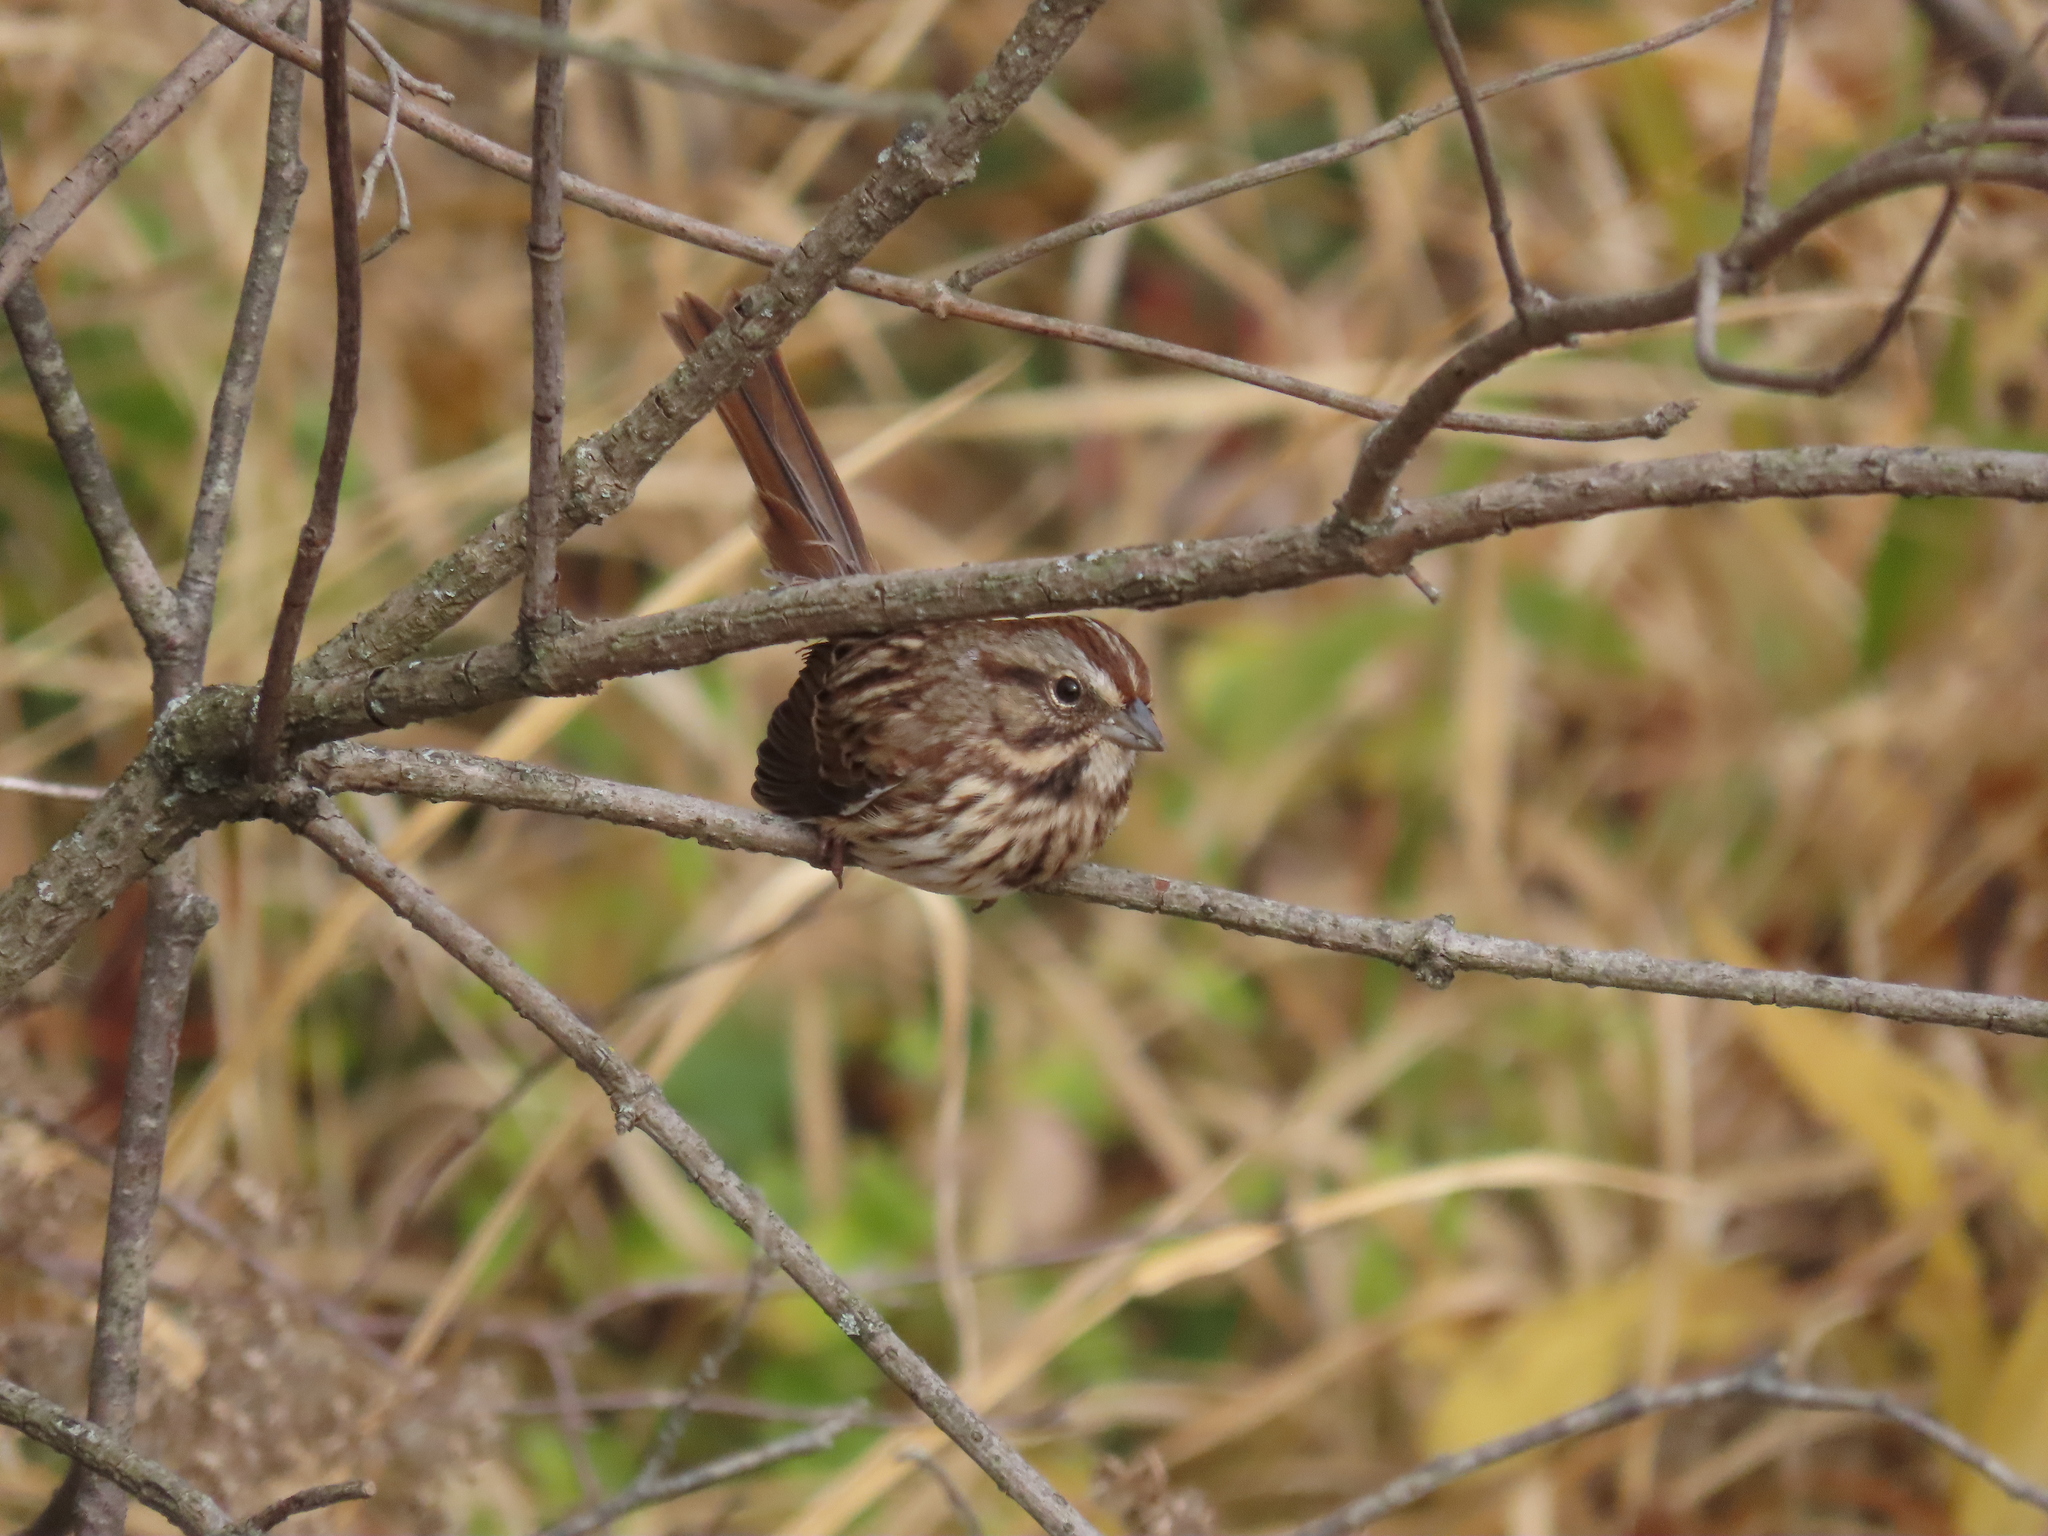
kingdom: Animalia
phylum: Chordata
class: Aves
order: Passeriformes
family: Passerellidae
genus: Melospiza
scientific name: Melospiza melodia
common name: Song sparrow
